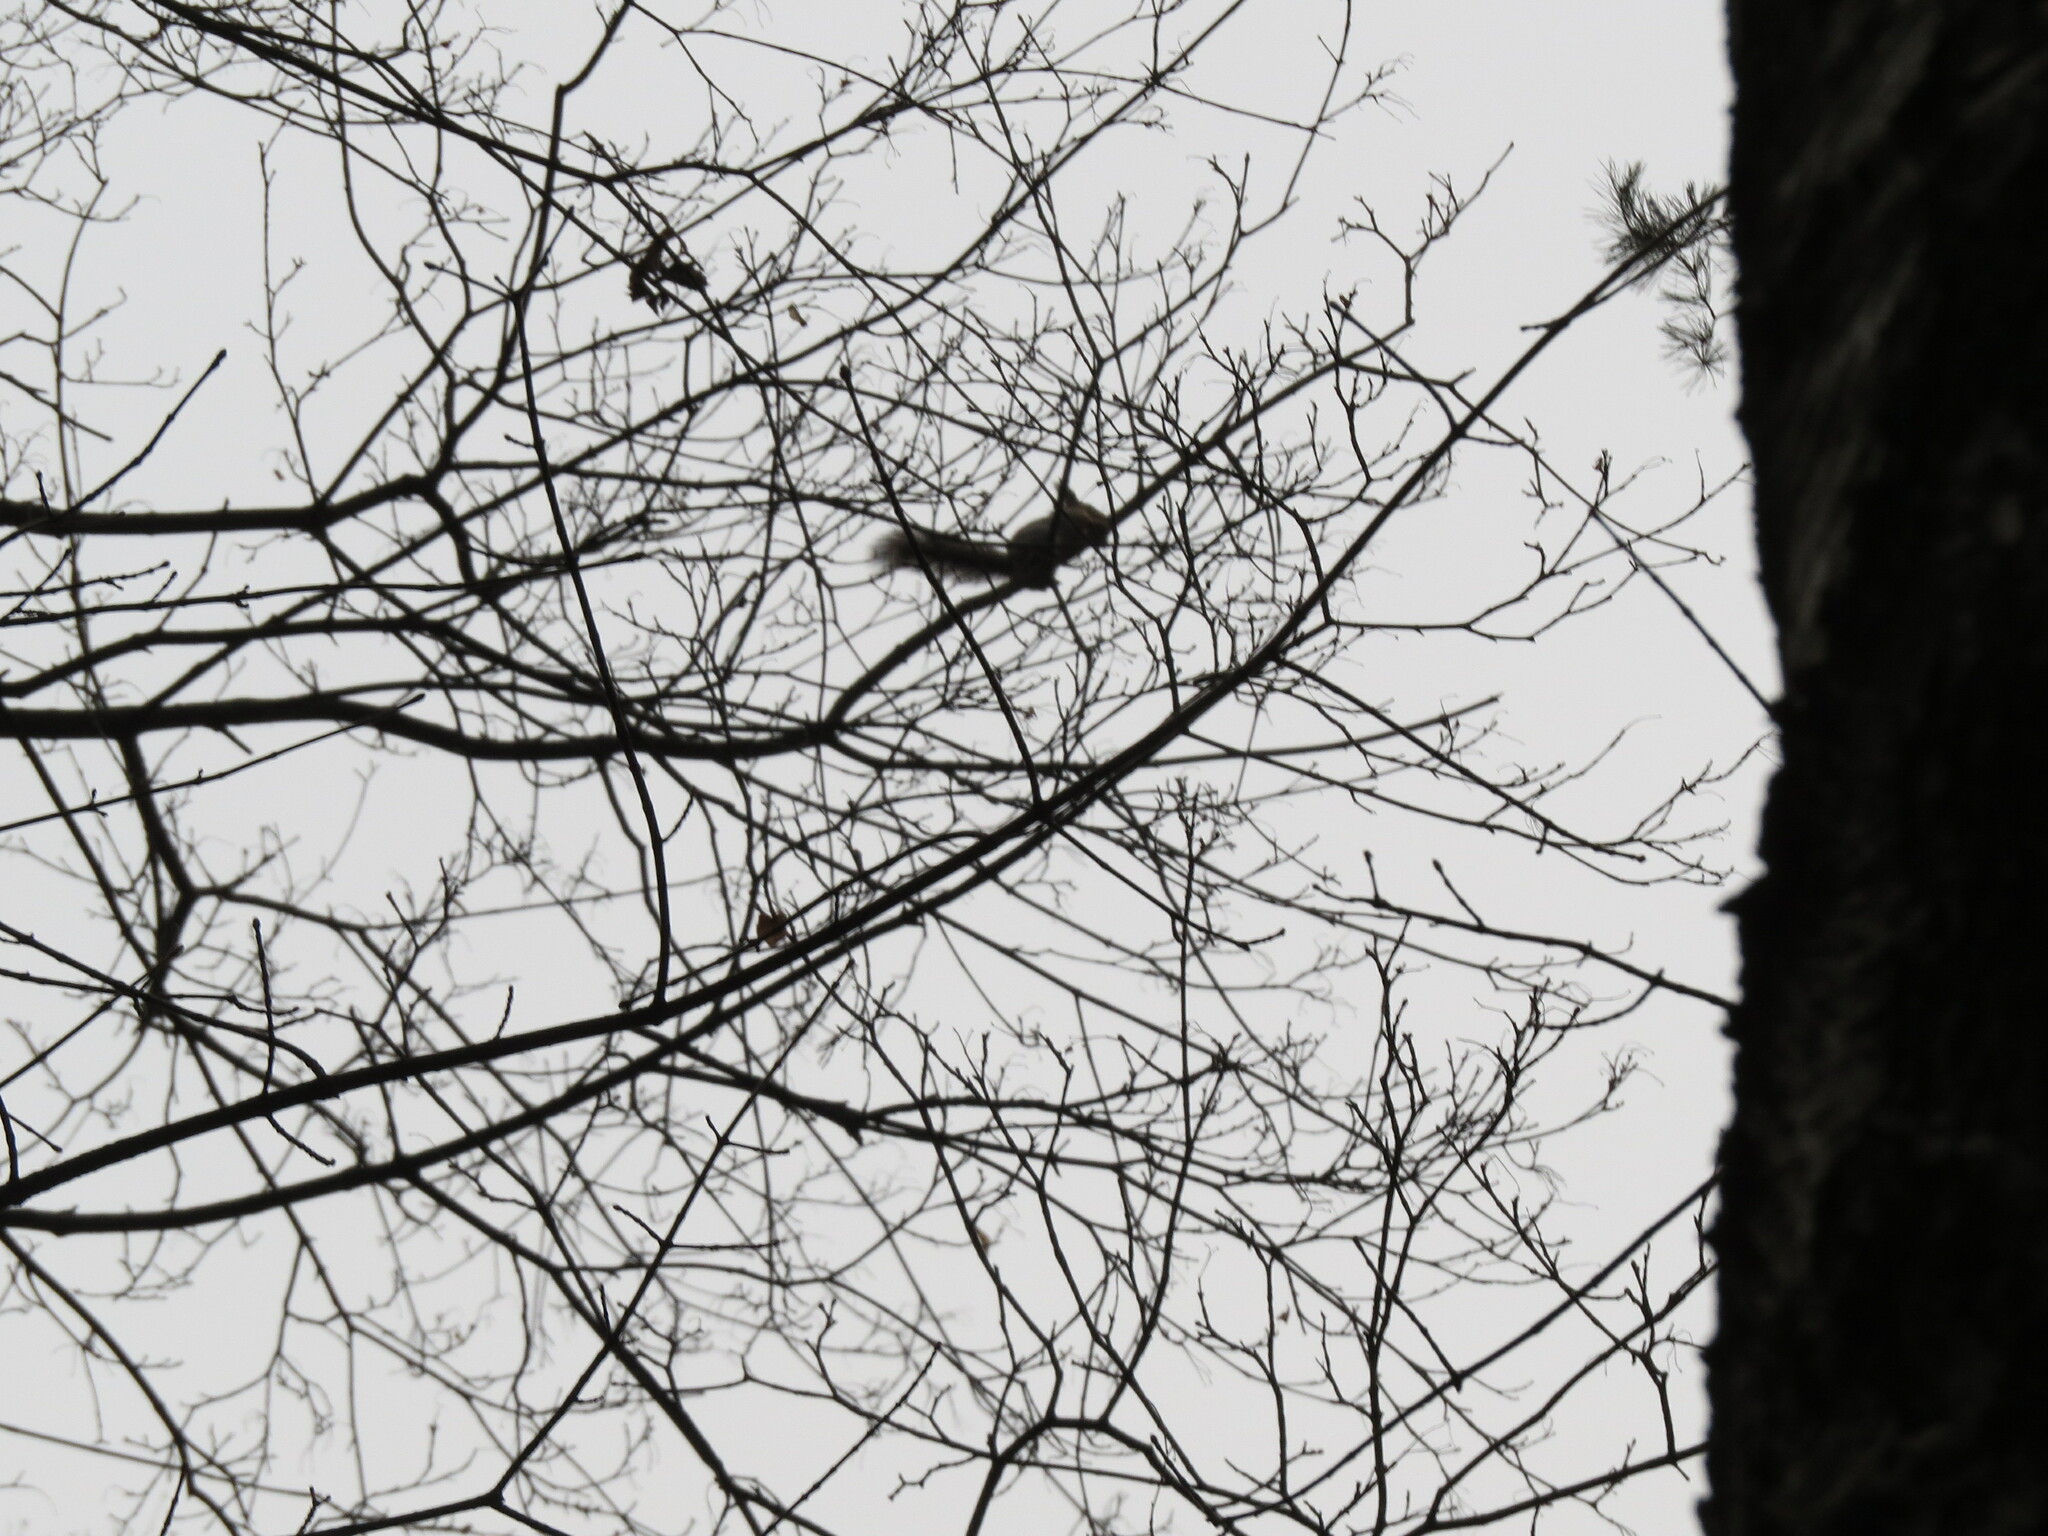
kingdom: Animalia
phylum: Chordata
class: Mammalia
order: Rodentia
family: Sciuridae
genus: Sciurus
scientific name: Sciurus vulgaris
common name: Eurasian red squirrel
